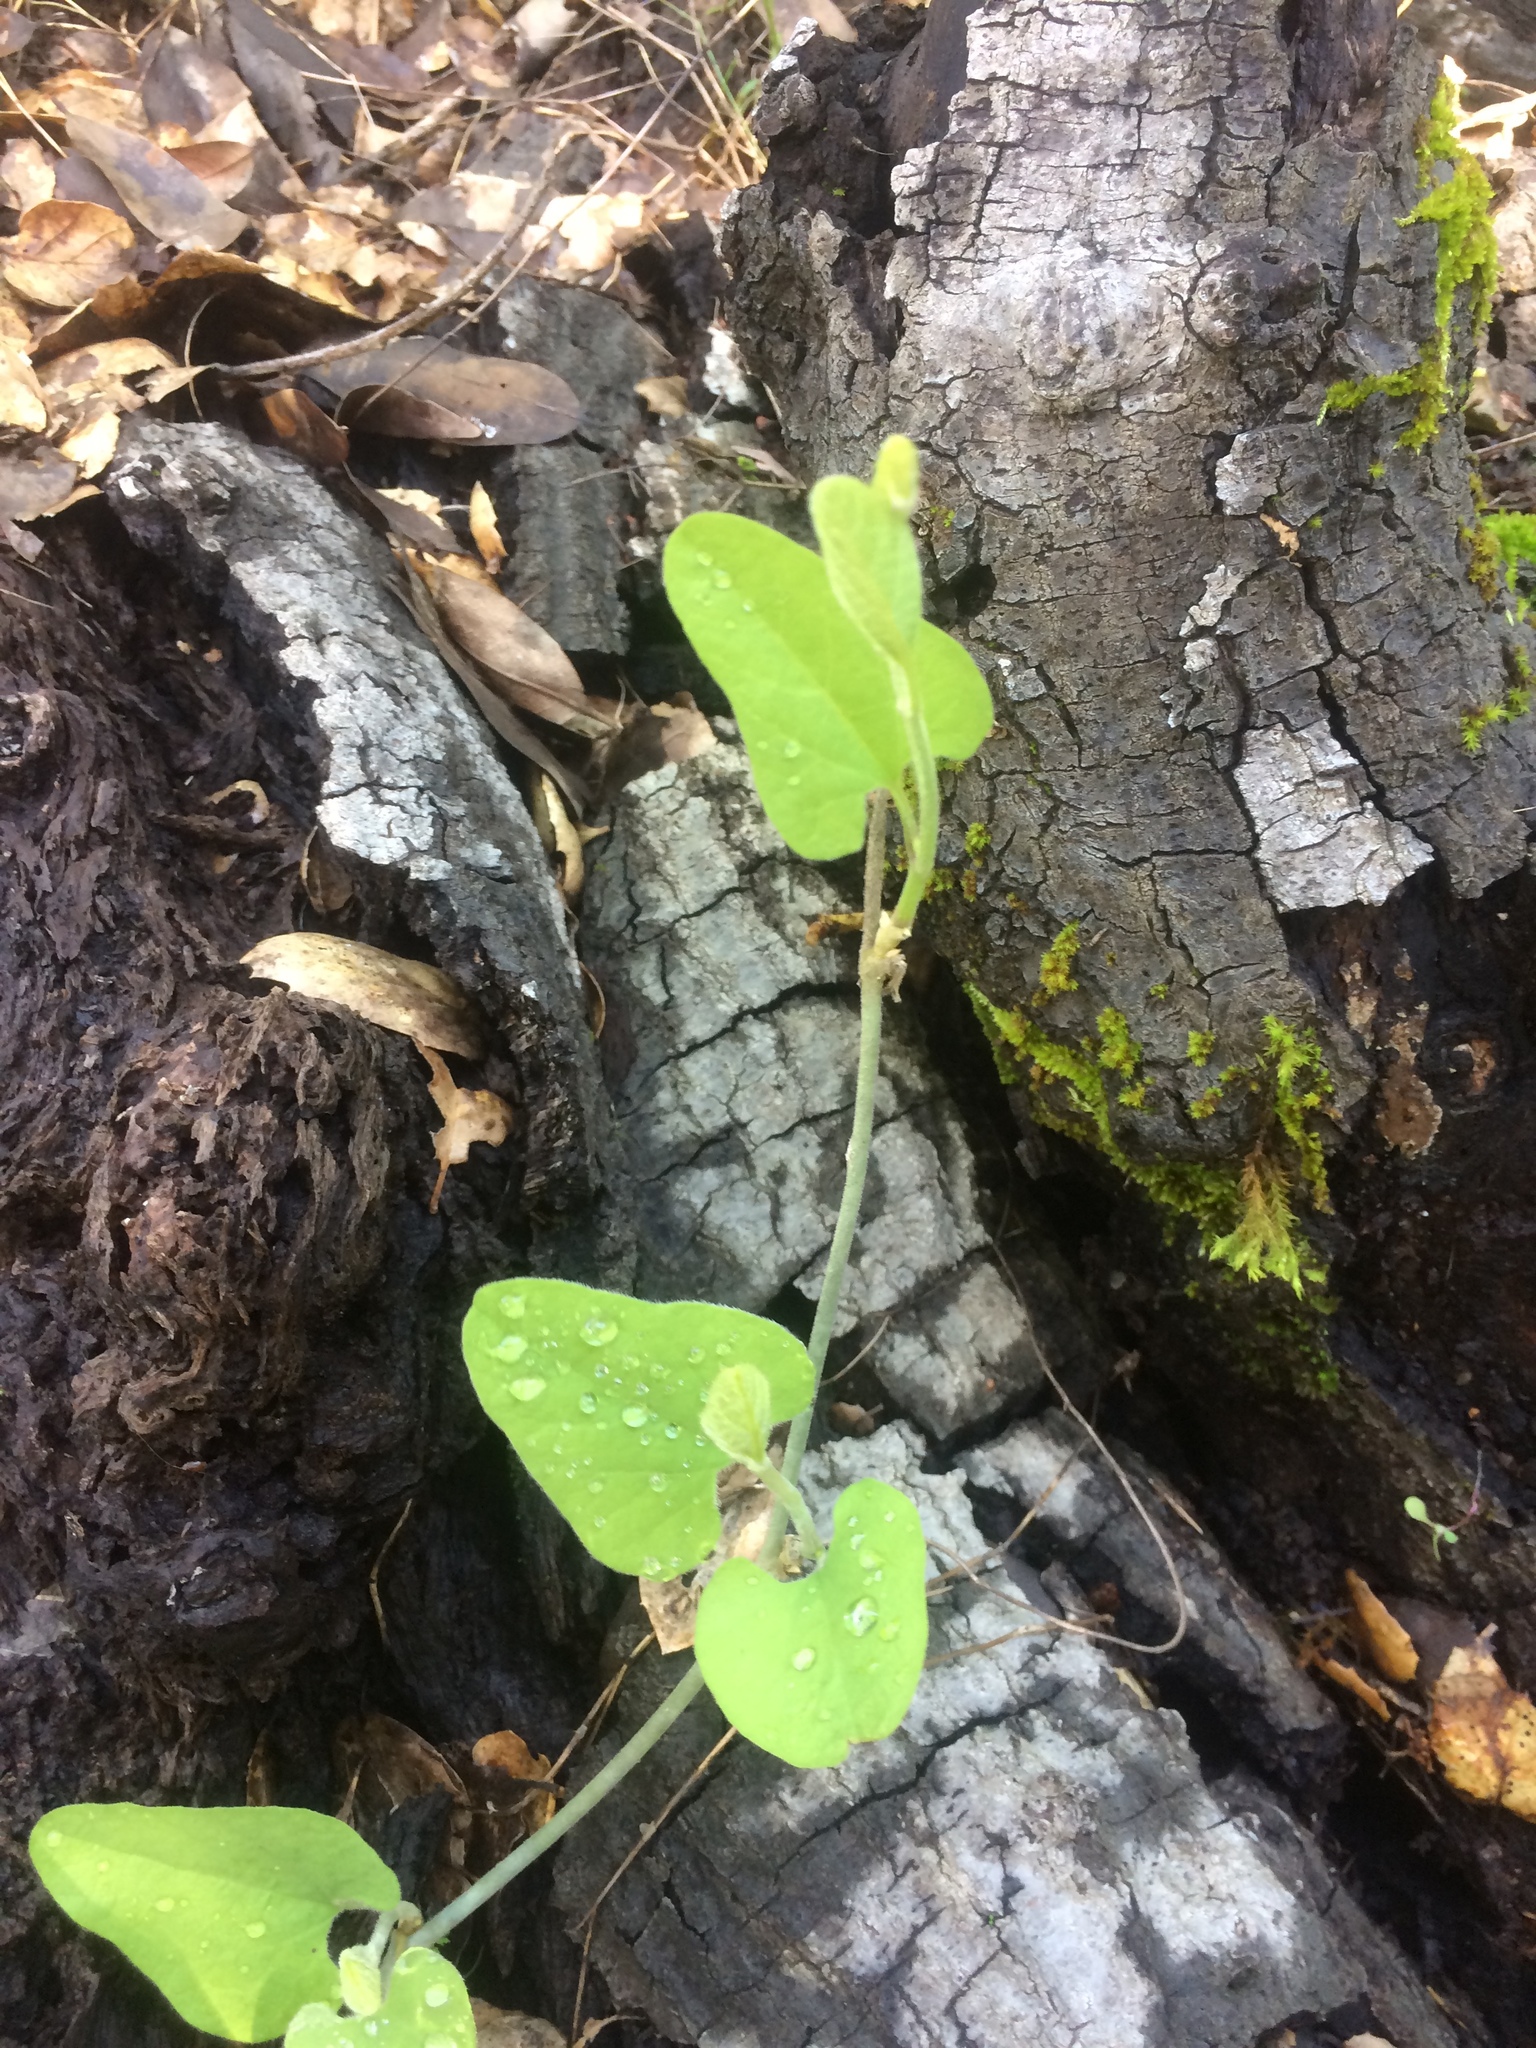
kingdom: Plantae
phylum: Tracheophyta
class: Magnoliopsida
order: Piperales
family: Aristolochiaceae
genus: Isotrema
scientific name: Isotrema californicum
